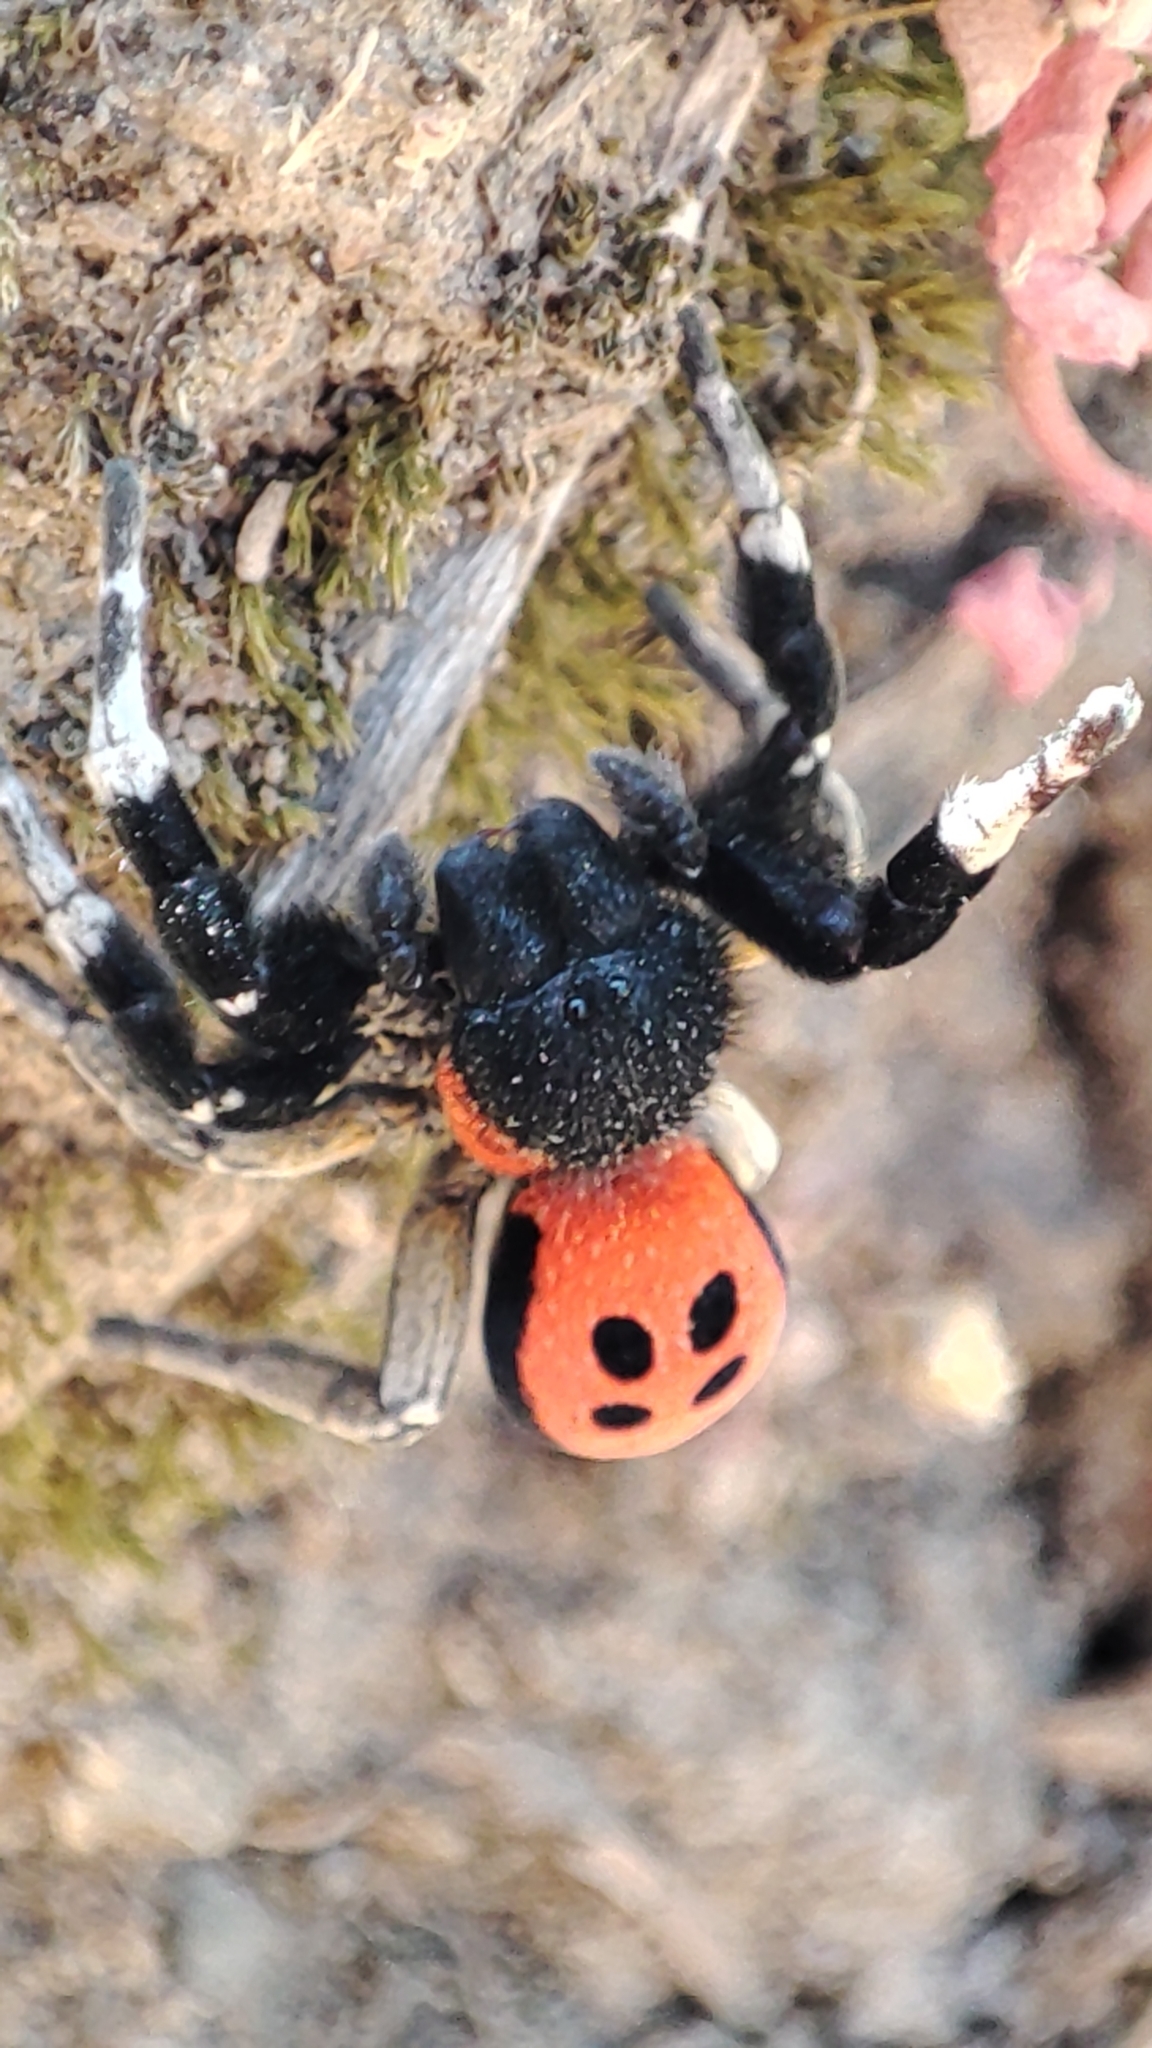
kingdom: Animalia
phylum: Arthropoda
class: Arachnida
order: Araneae
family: Eresidae
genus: Eresus
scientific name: Eresus
